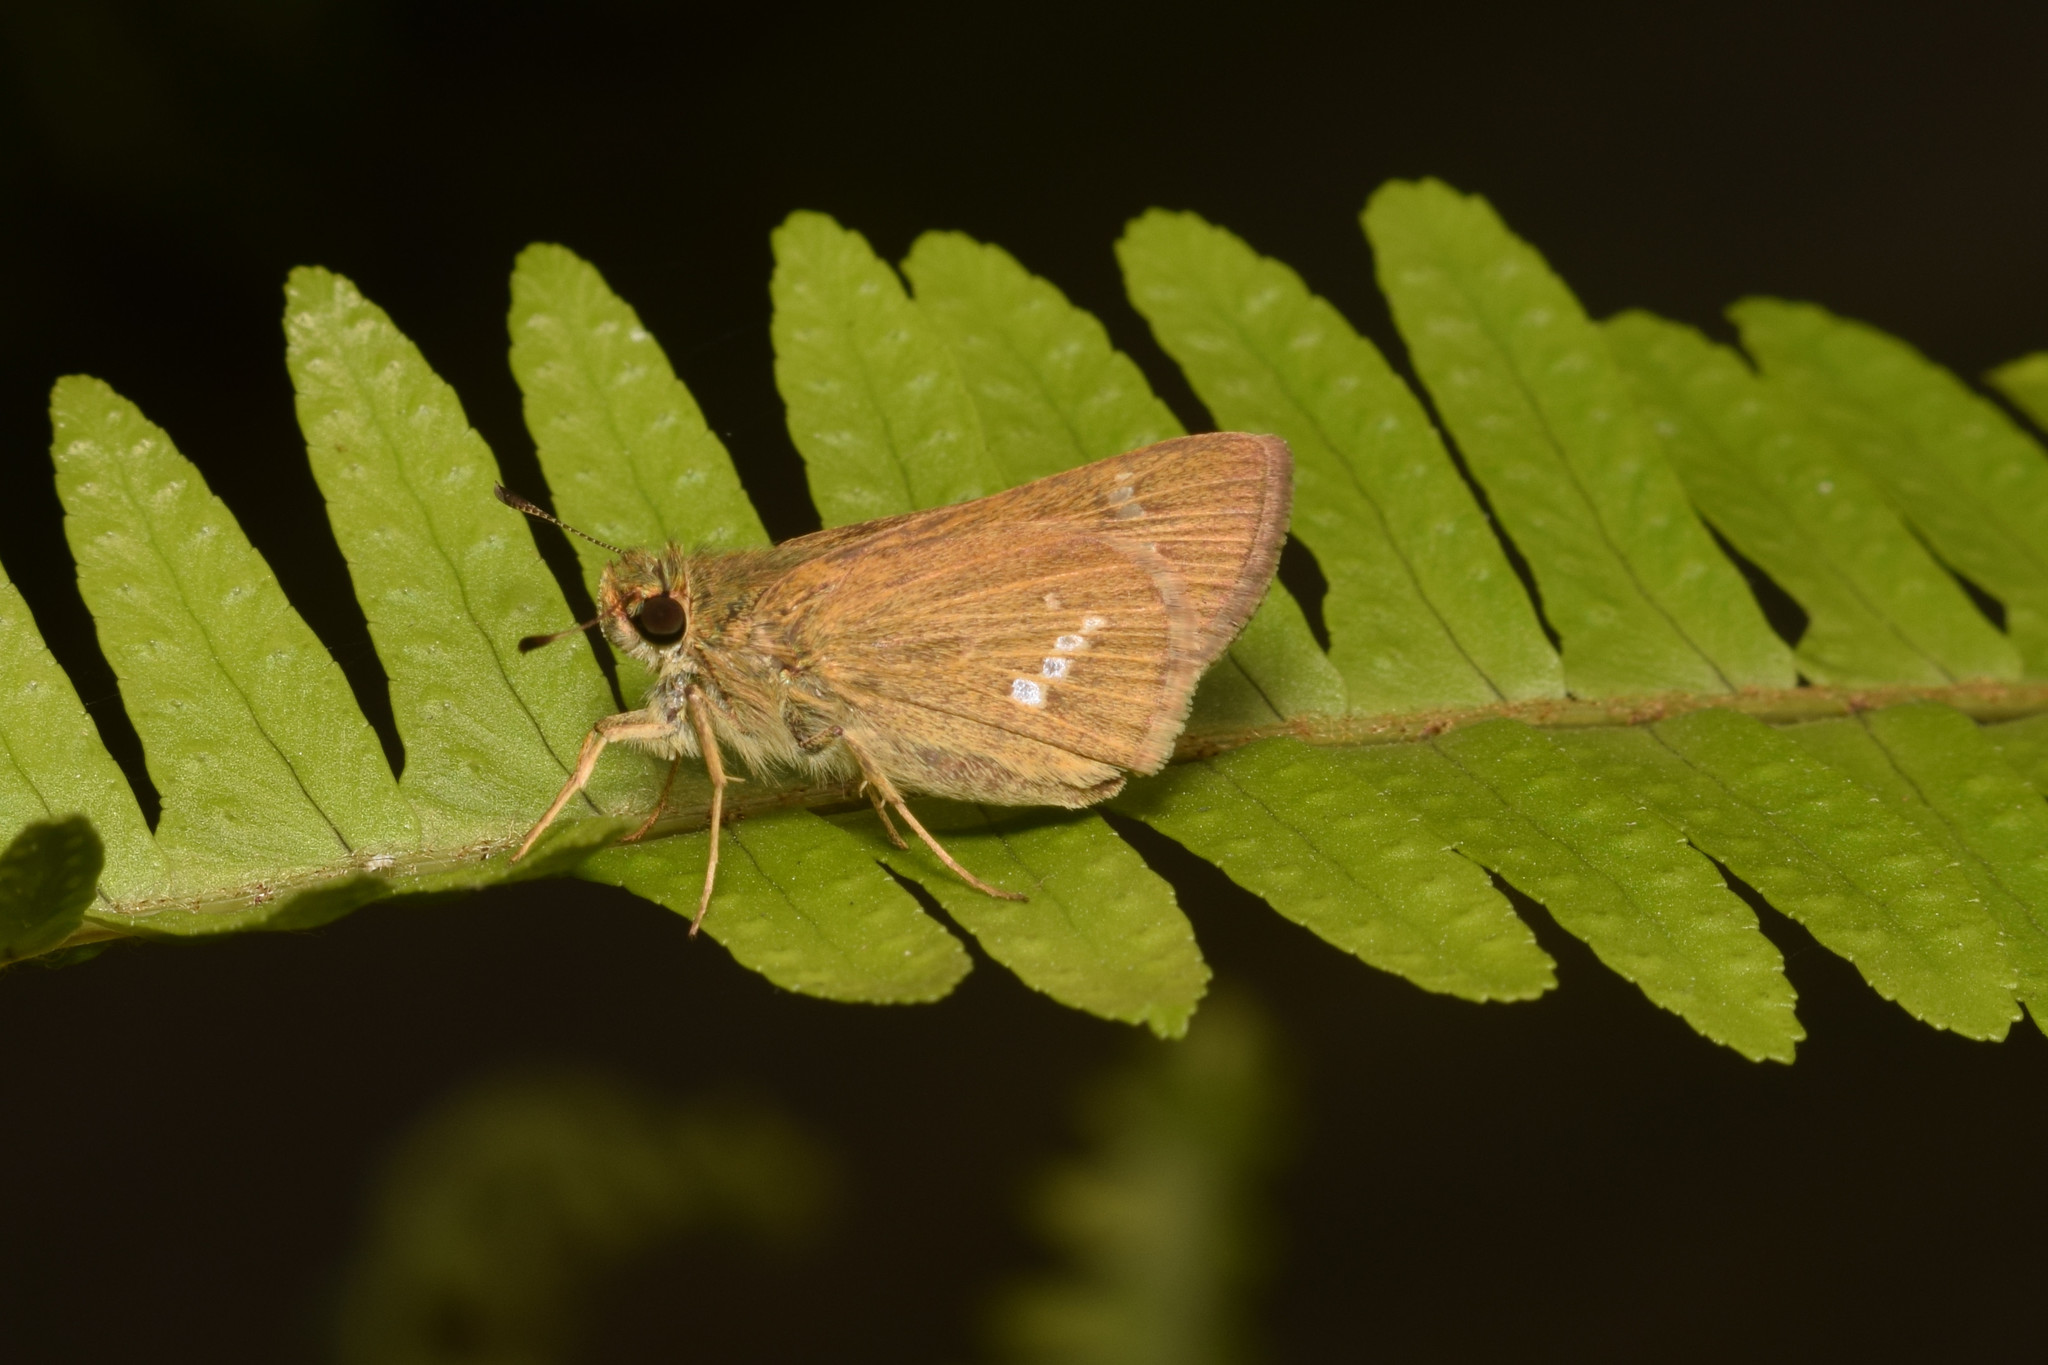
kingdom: Animalia
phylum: Arthropoda
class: Insecta
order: Lepidoptera
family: Hesperiidae
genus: Parnara
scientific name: Parnara guttatus
